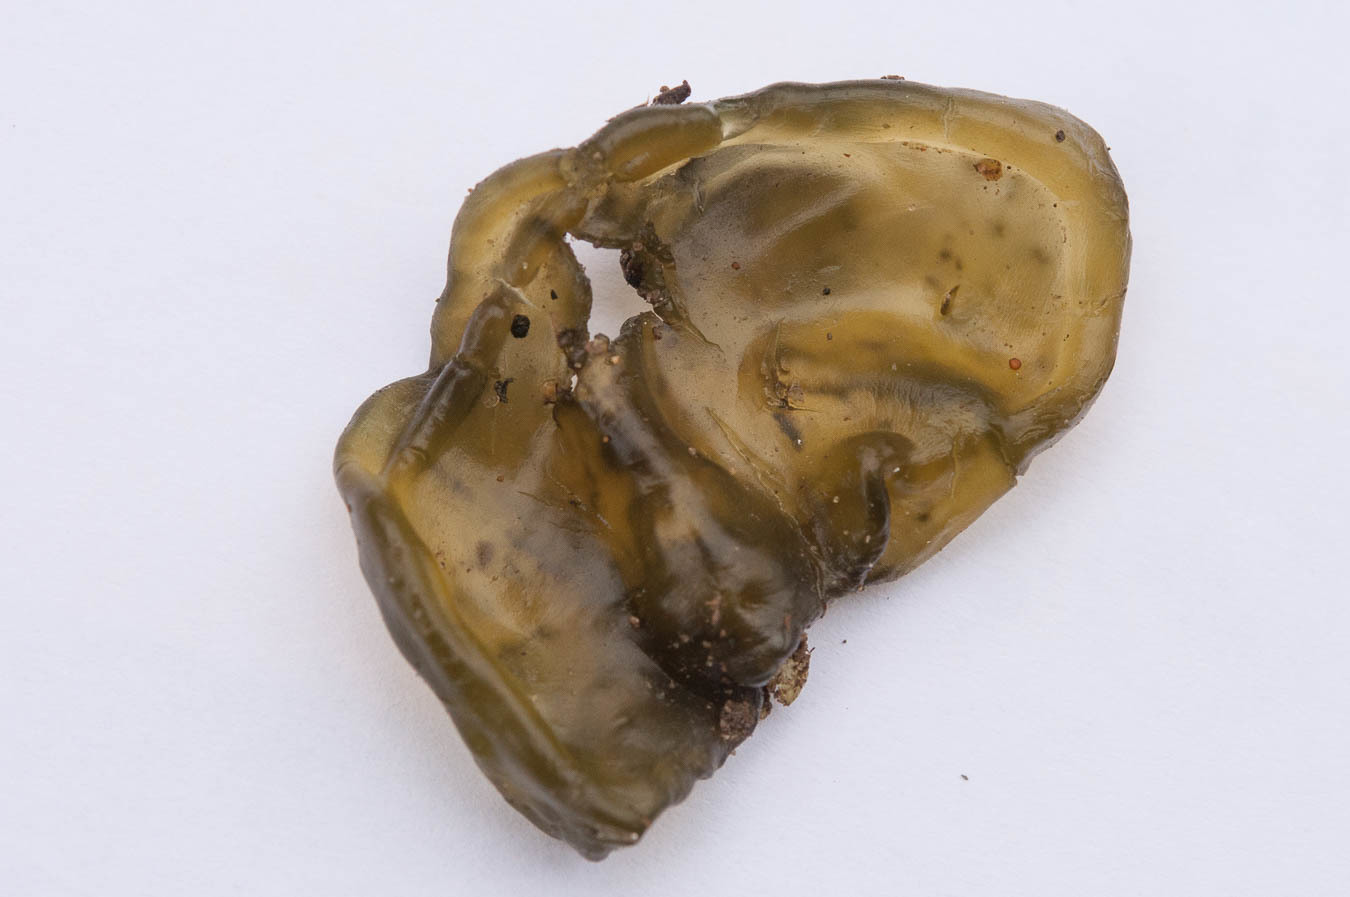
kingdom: Bacteria
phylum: Cyanobacteria
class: Cyanobacteriia
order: Cyanobacteriales
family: Nostocaceae
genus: Nostoc
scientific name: Nostoc commune
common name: Star jelly
